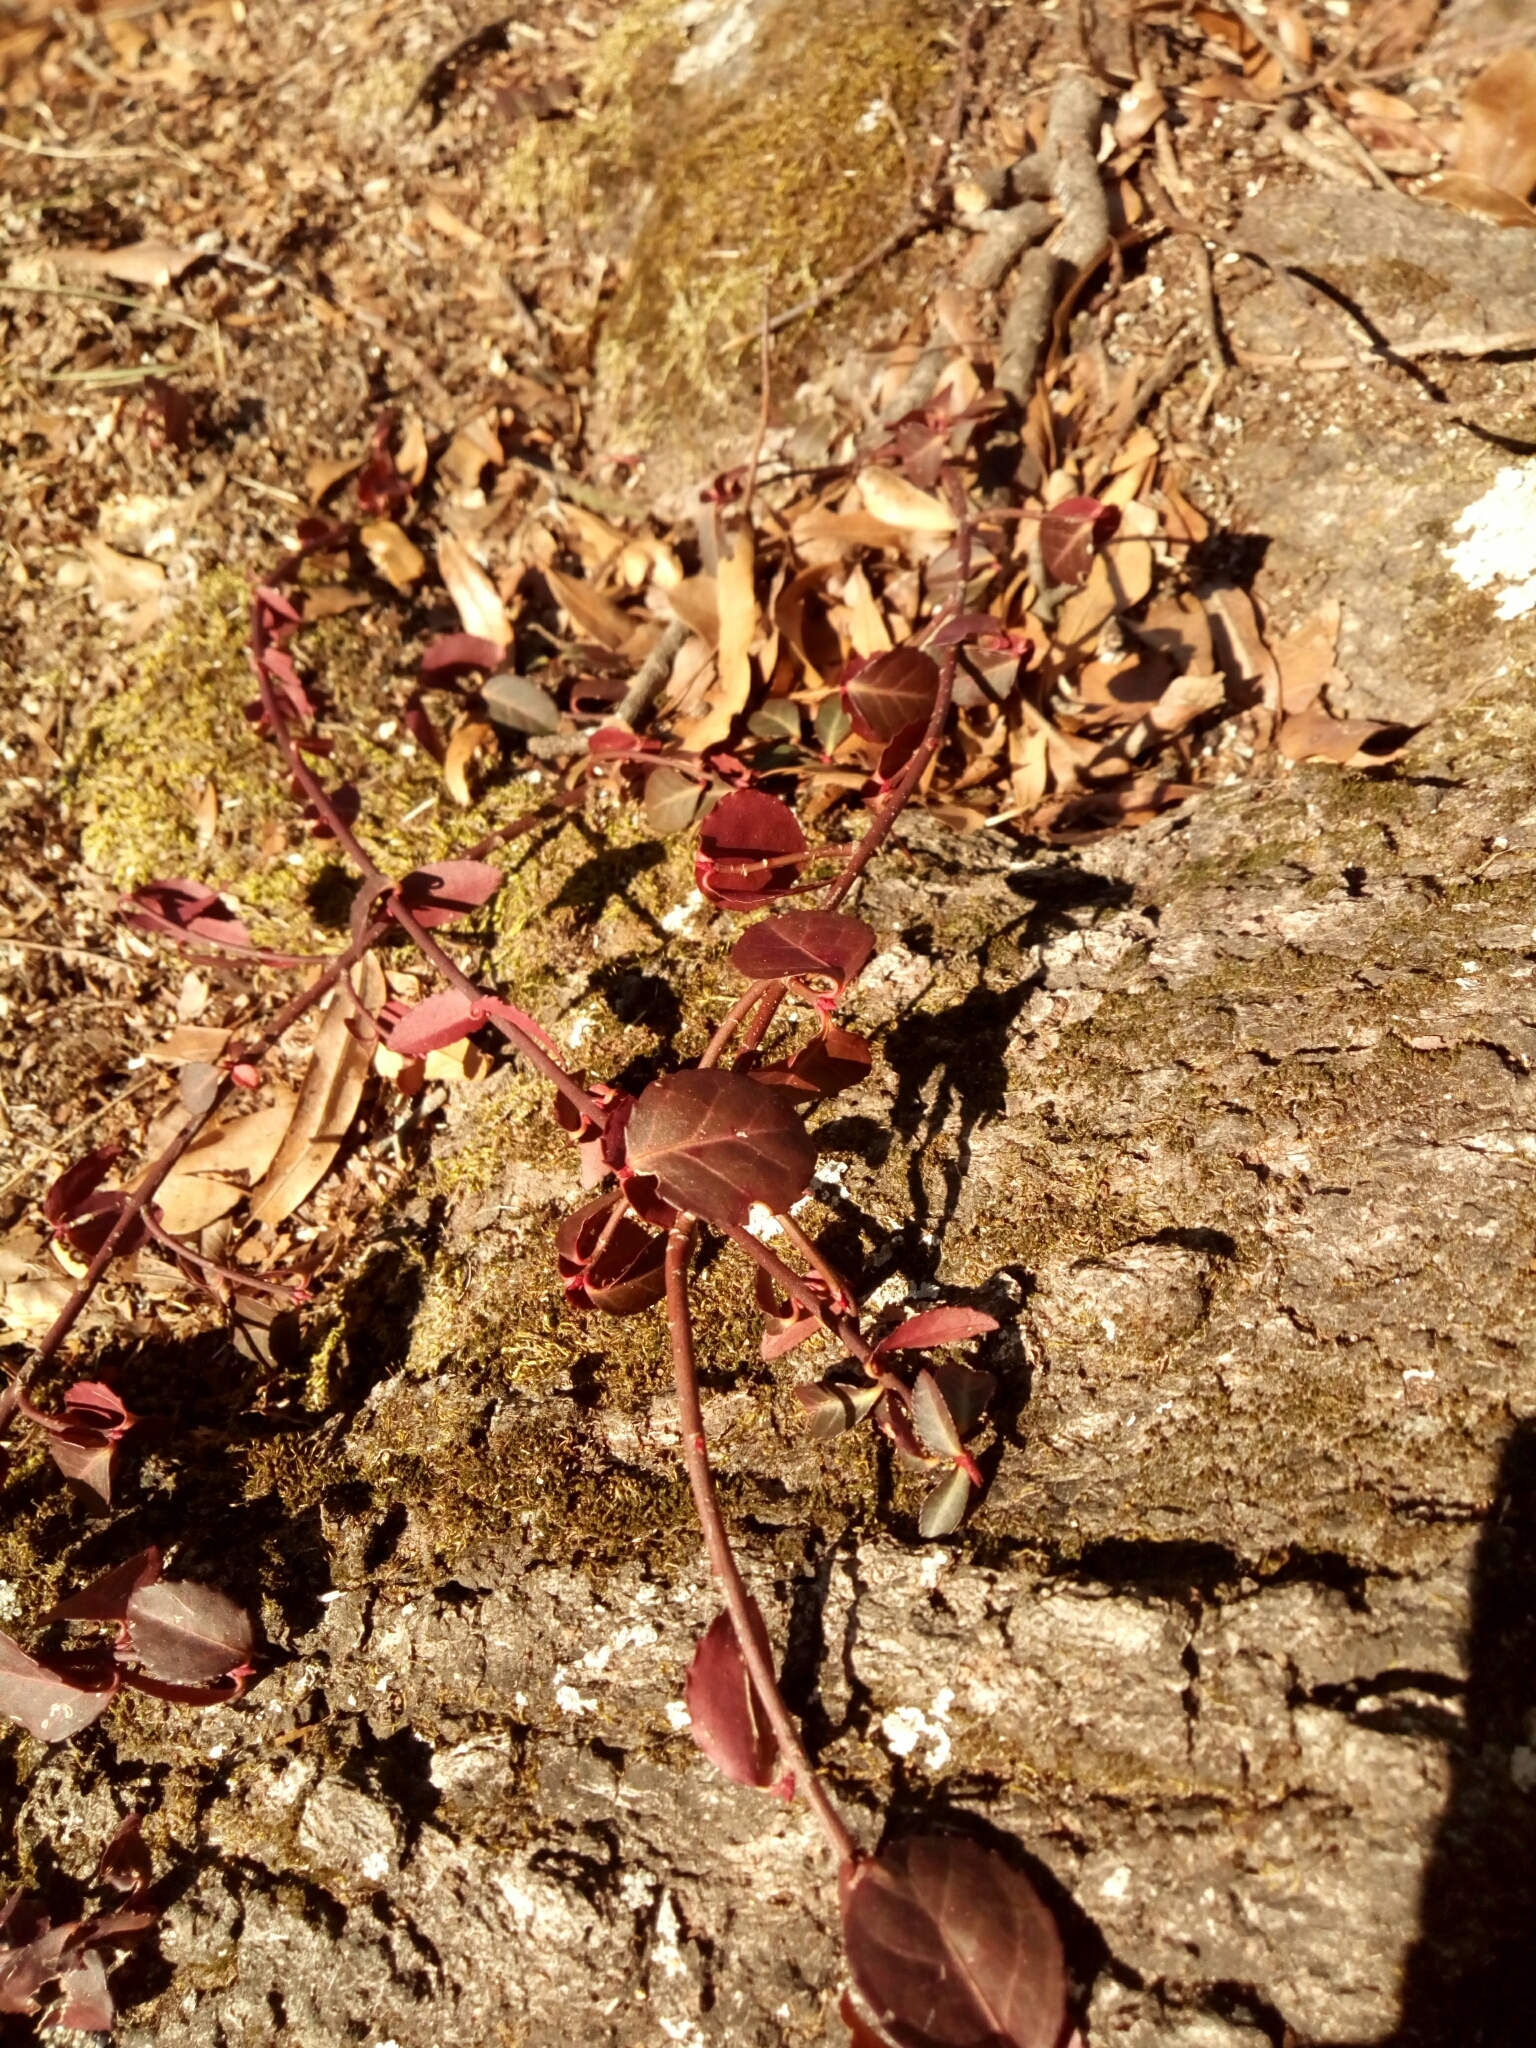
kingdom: Plantae
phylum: Tracheophyta
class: Magnoliopsida
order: Celastrales
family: Celastraceae
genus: Euonymus
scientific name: Euonymus fortunei
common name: Climbing euonymus
